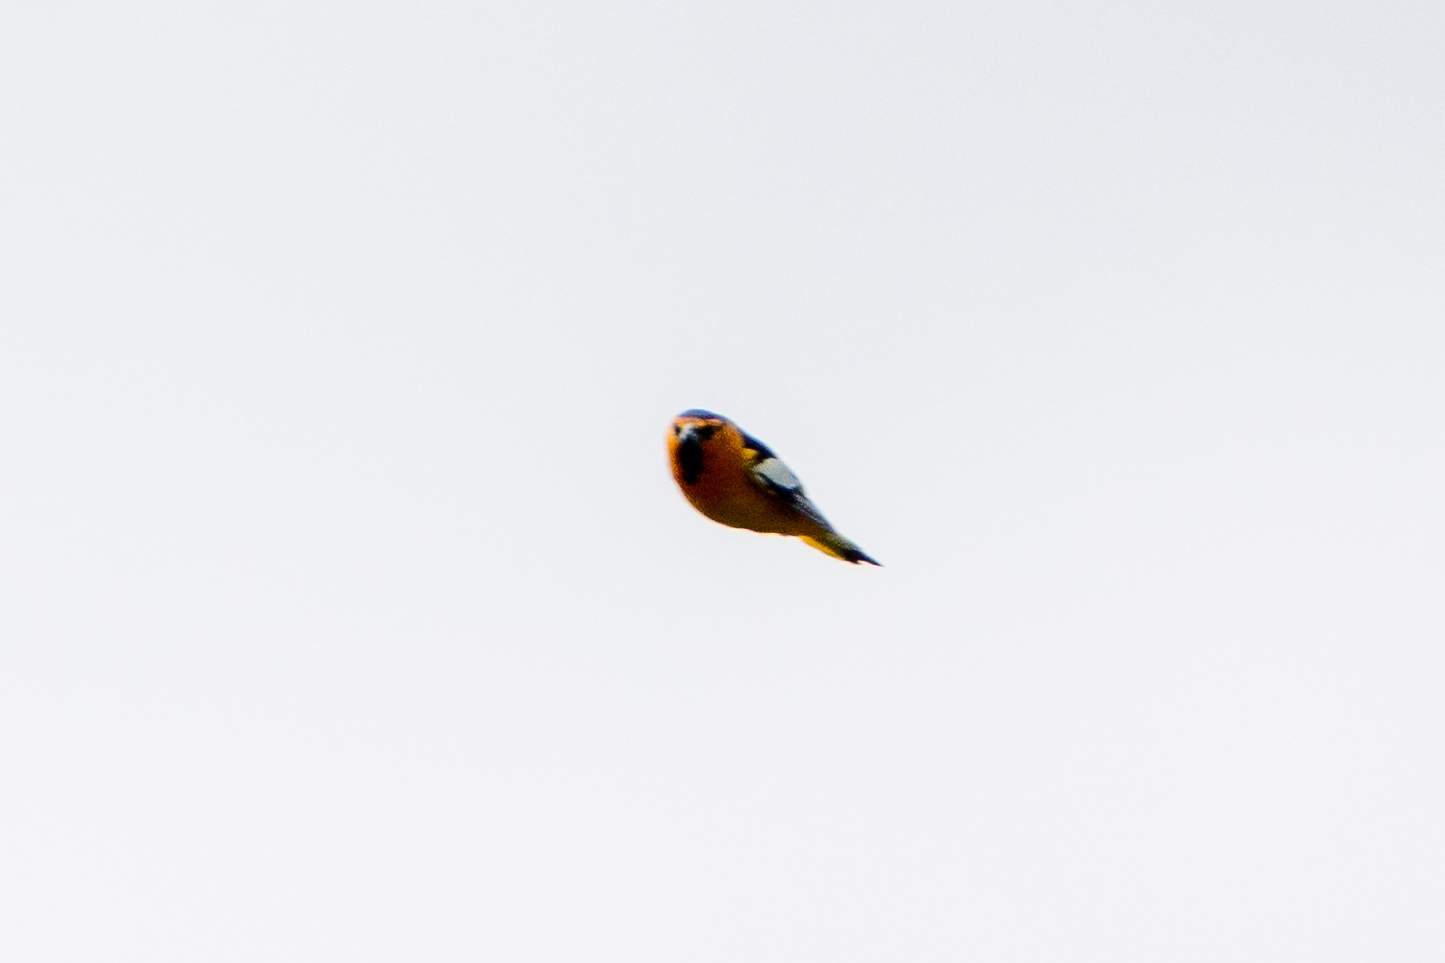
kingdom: Animalia
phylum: Chordata
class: Aves
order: Passeriformes
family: Icteridae
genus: Icterus
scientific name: Icterus bullockii
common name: Bullock's oriole
